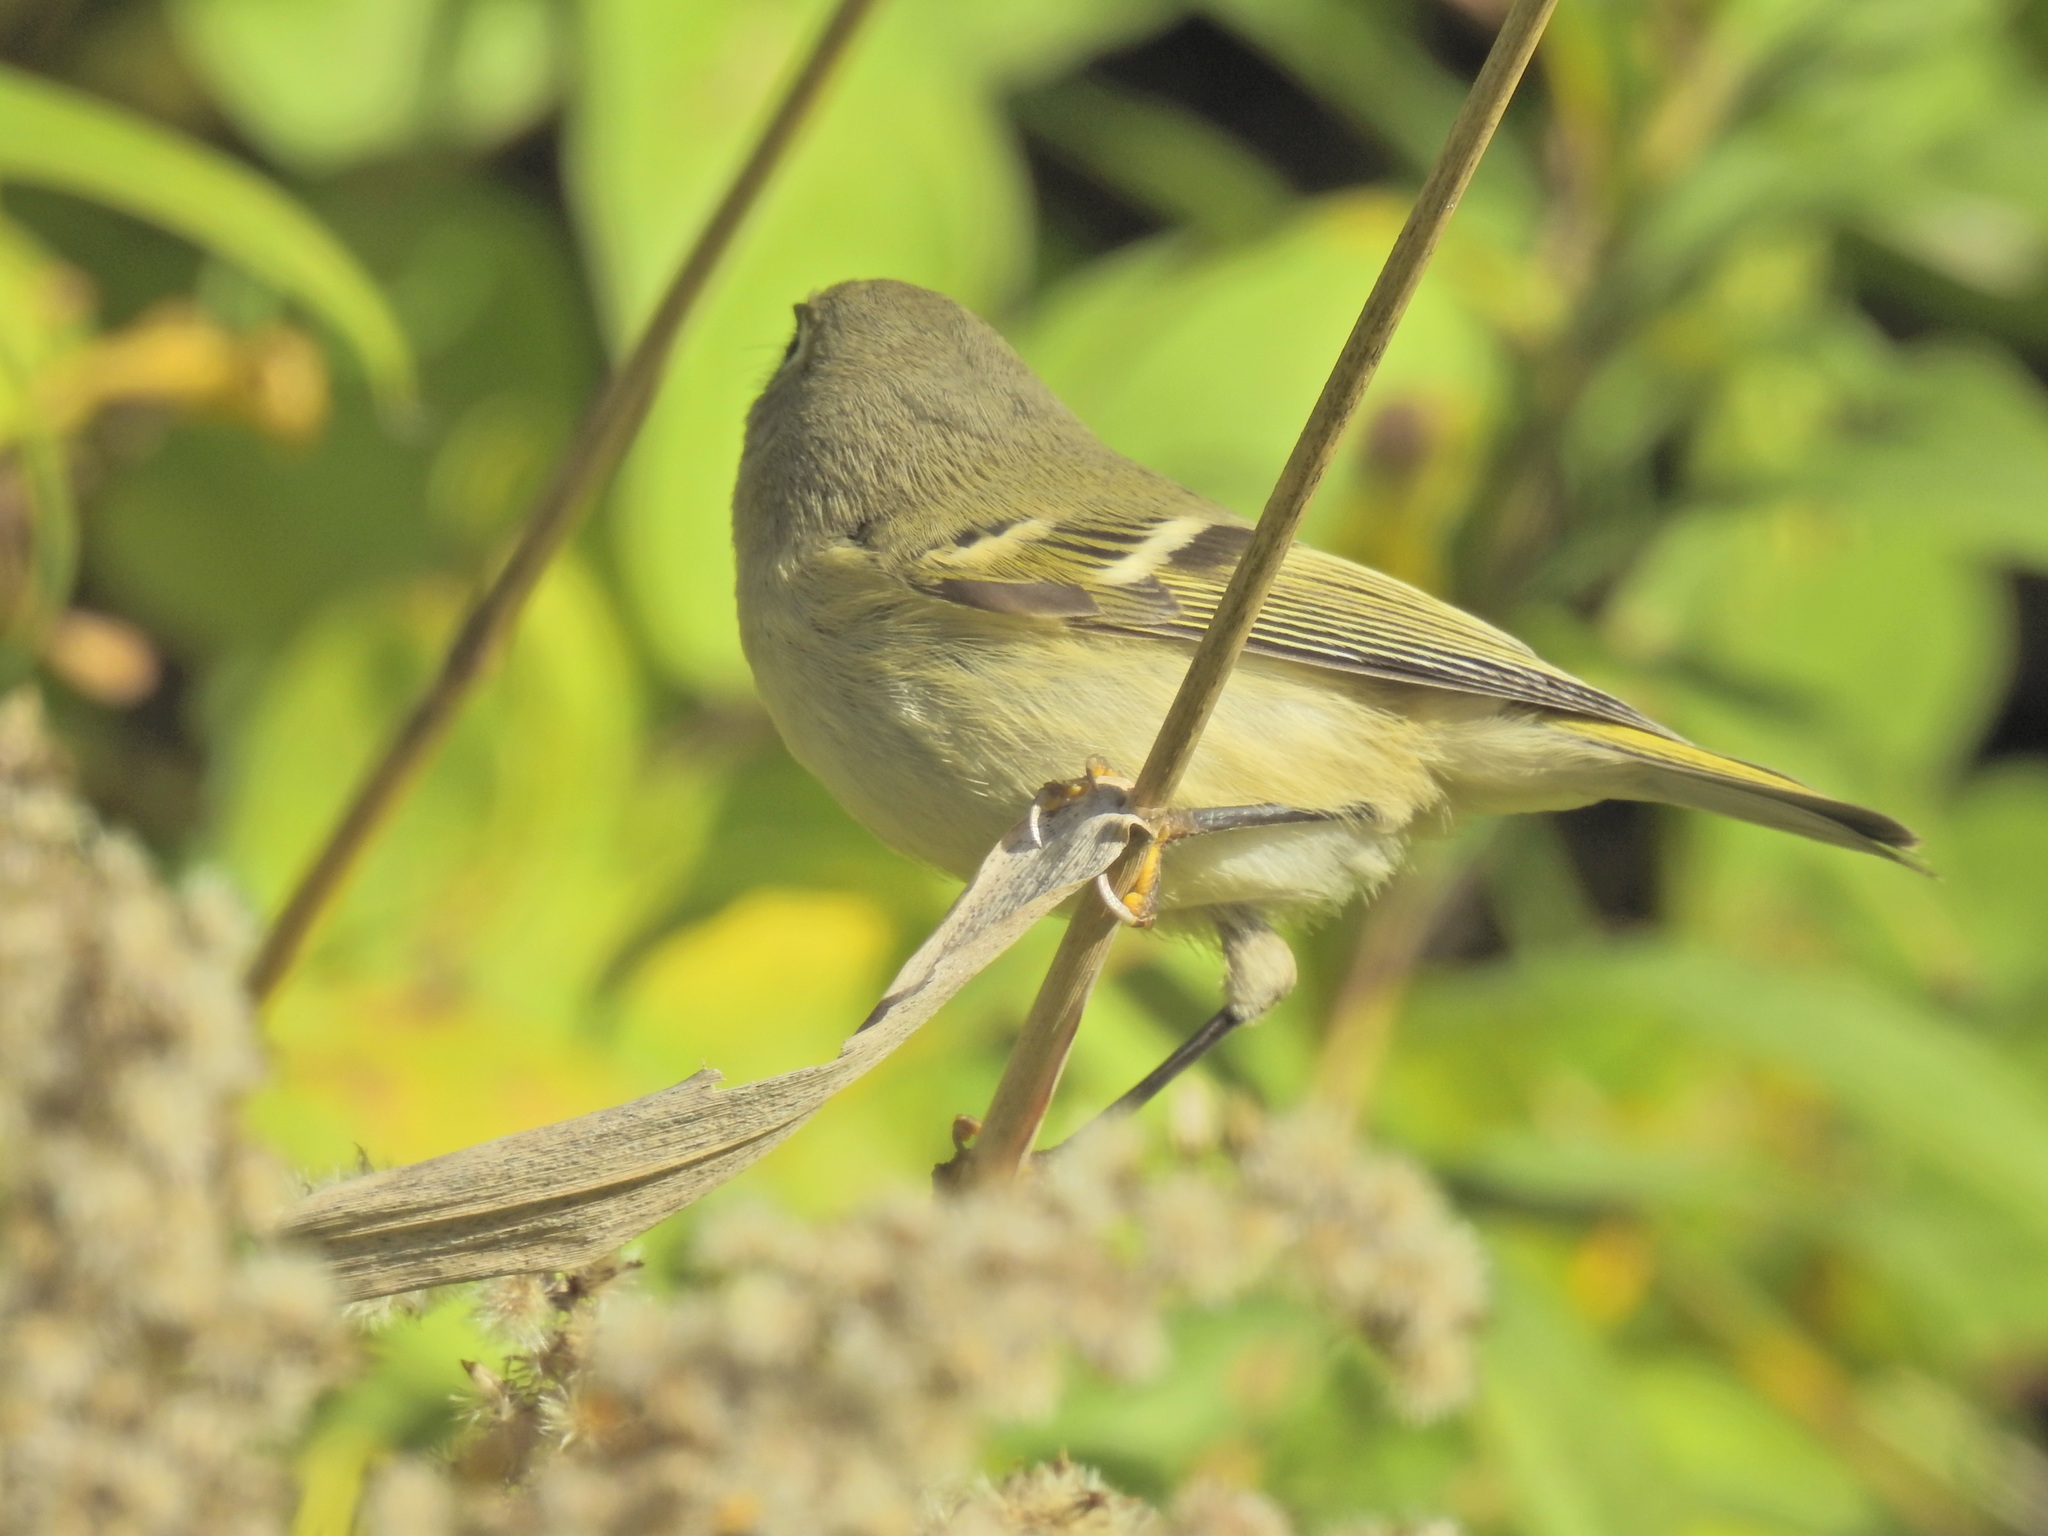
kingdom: Animalia
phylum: Chordata
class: Aves
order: Passeriformes
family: Regulidae
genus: Regulus
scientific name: Regulus calendula
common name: Ruby-crowned kinglet
